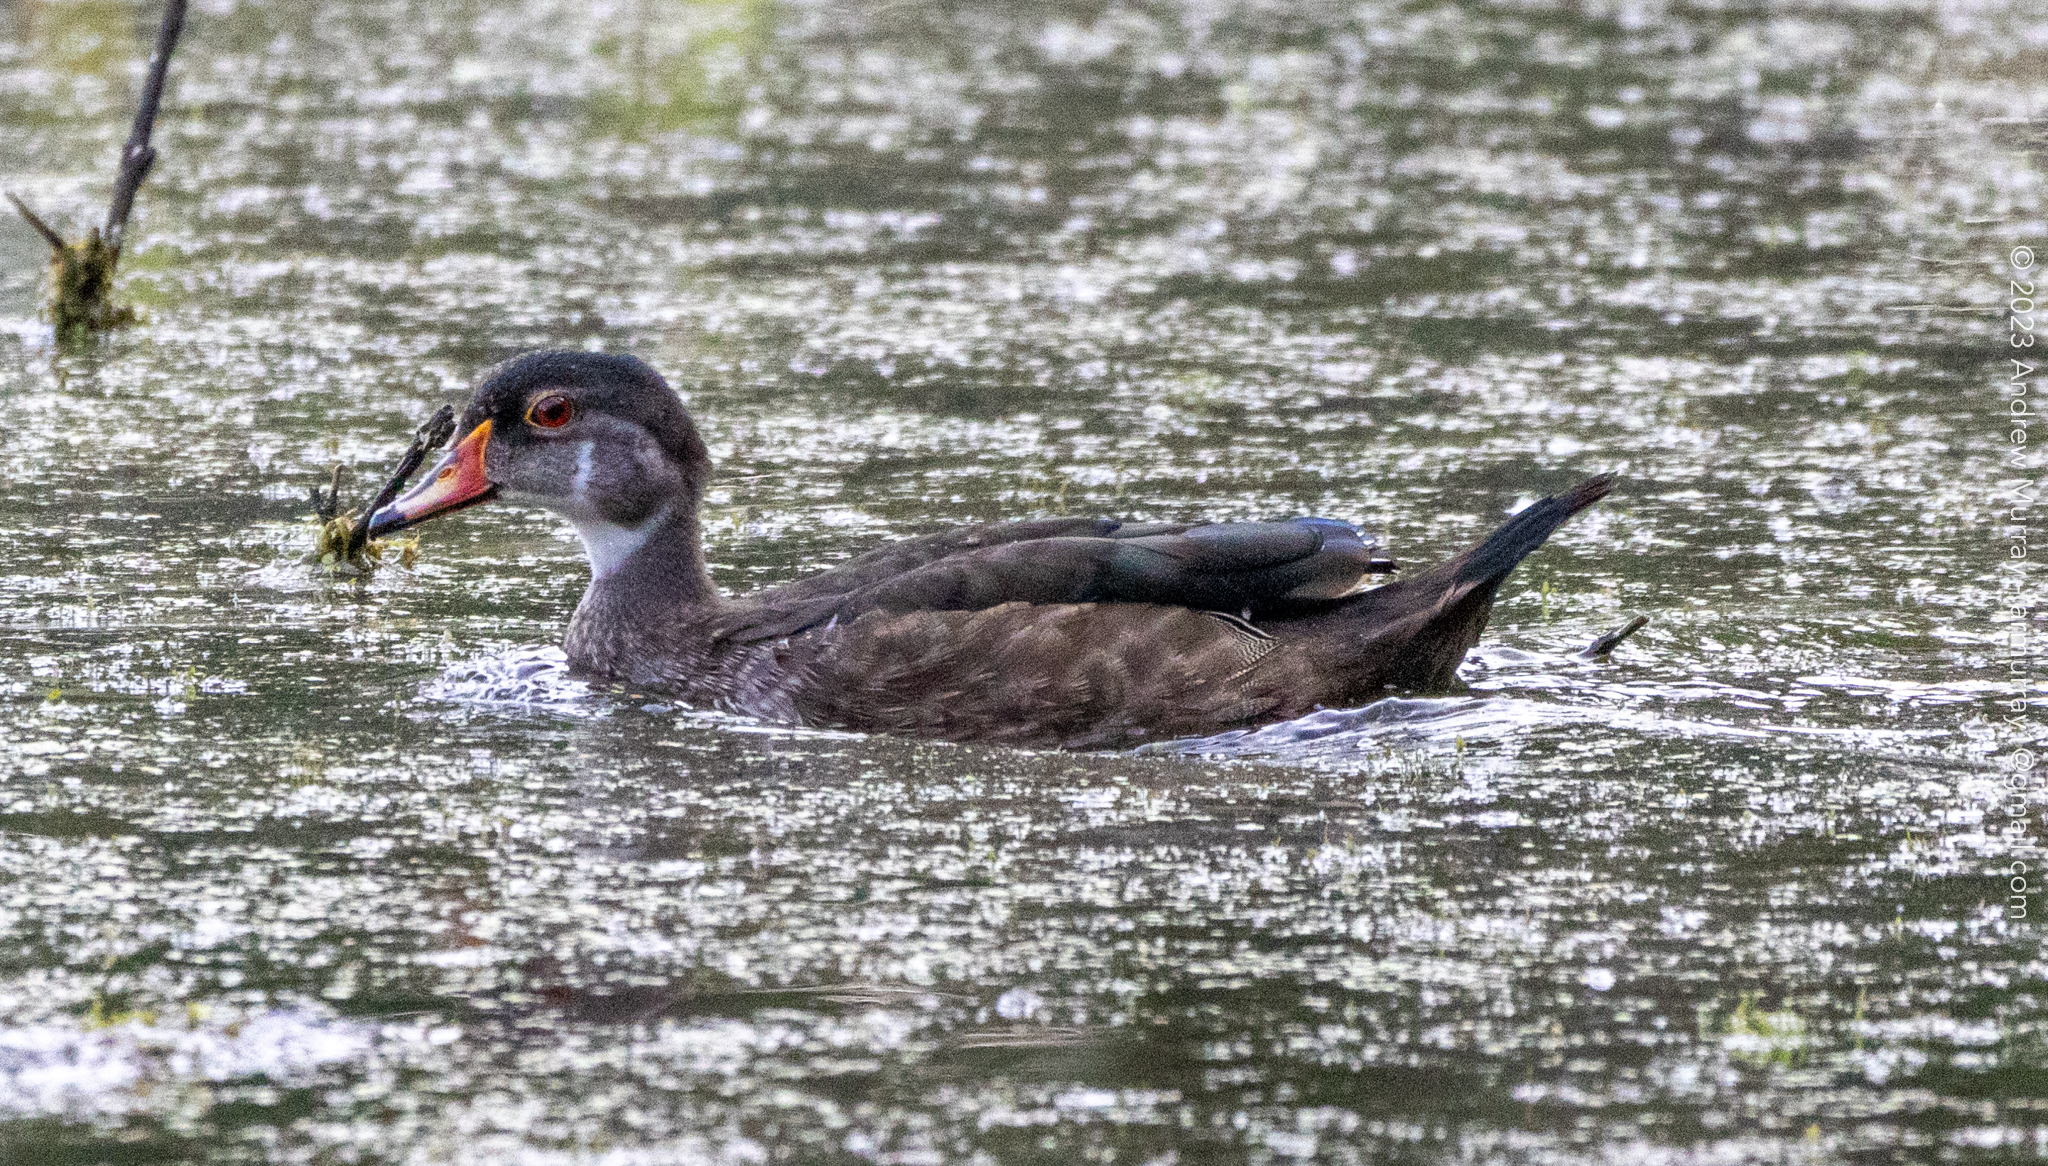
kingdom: Animalia
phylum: Chordata
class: Aves
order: Anseriformes
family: Anatidae
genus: Aix
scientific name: Aix sponsa
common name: Wood duck
